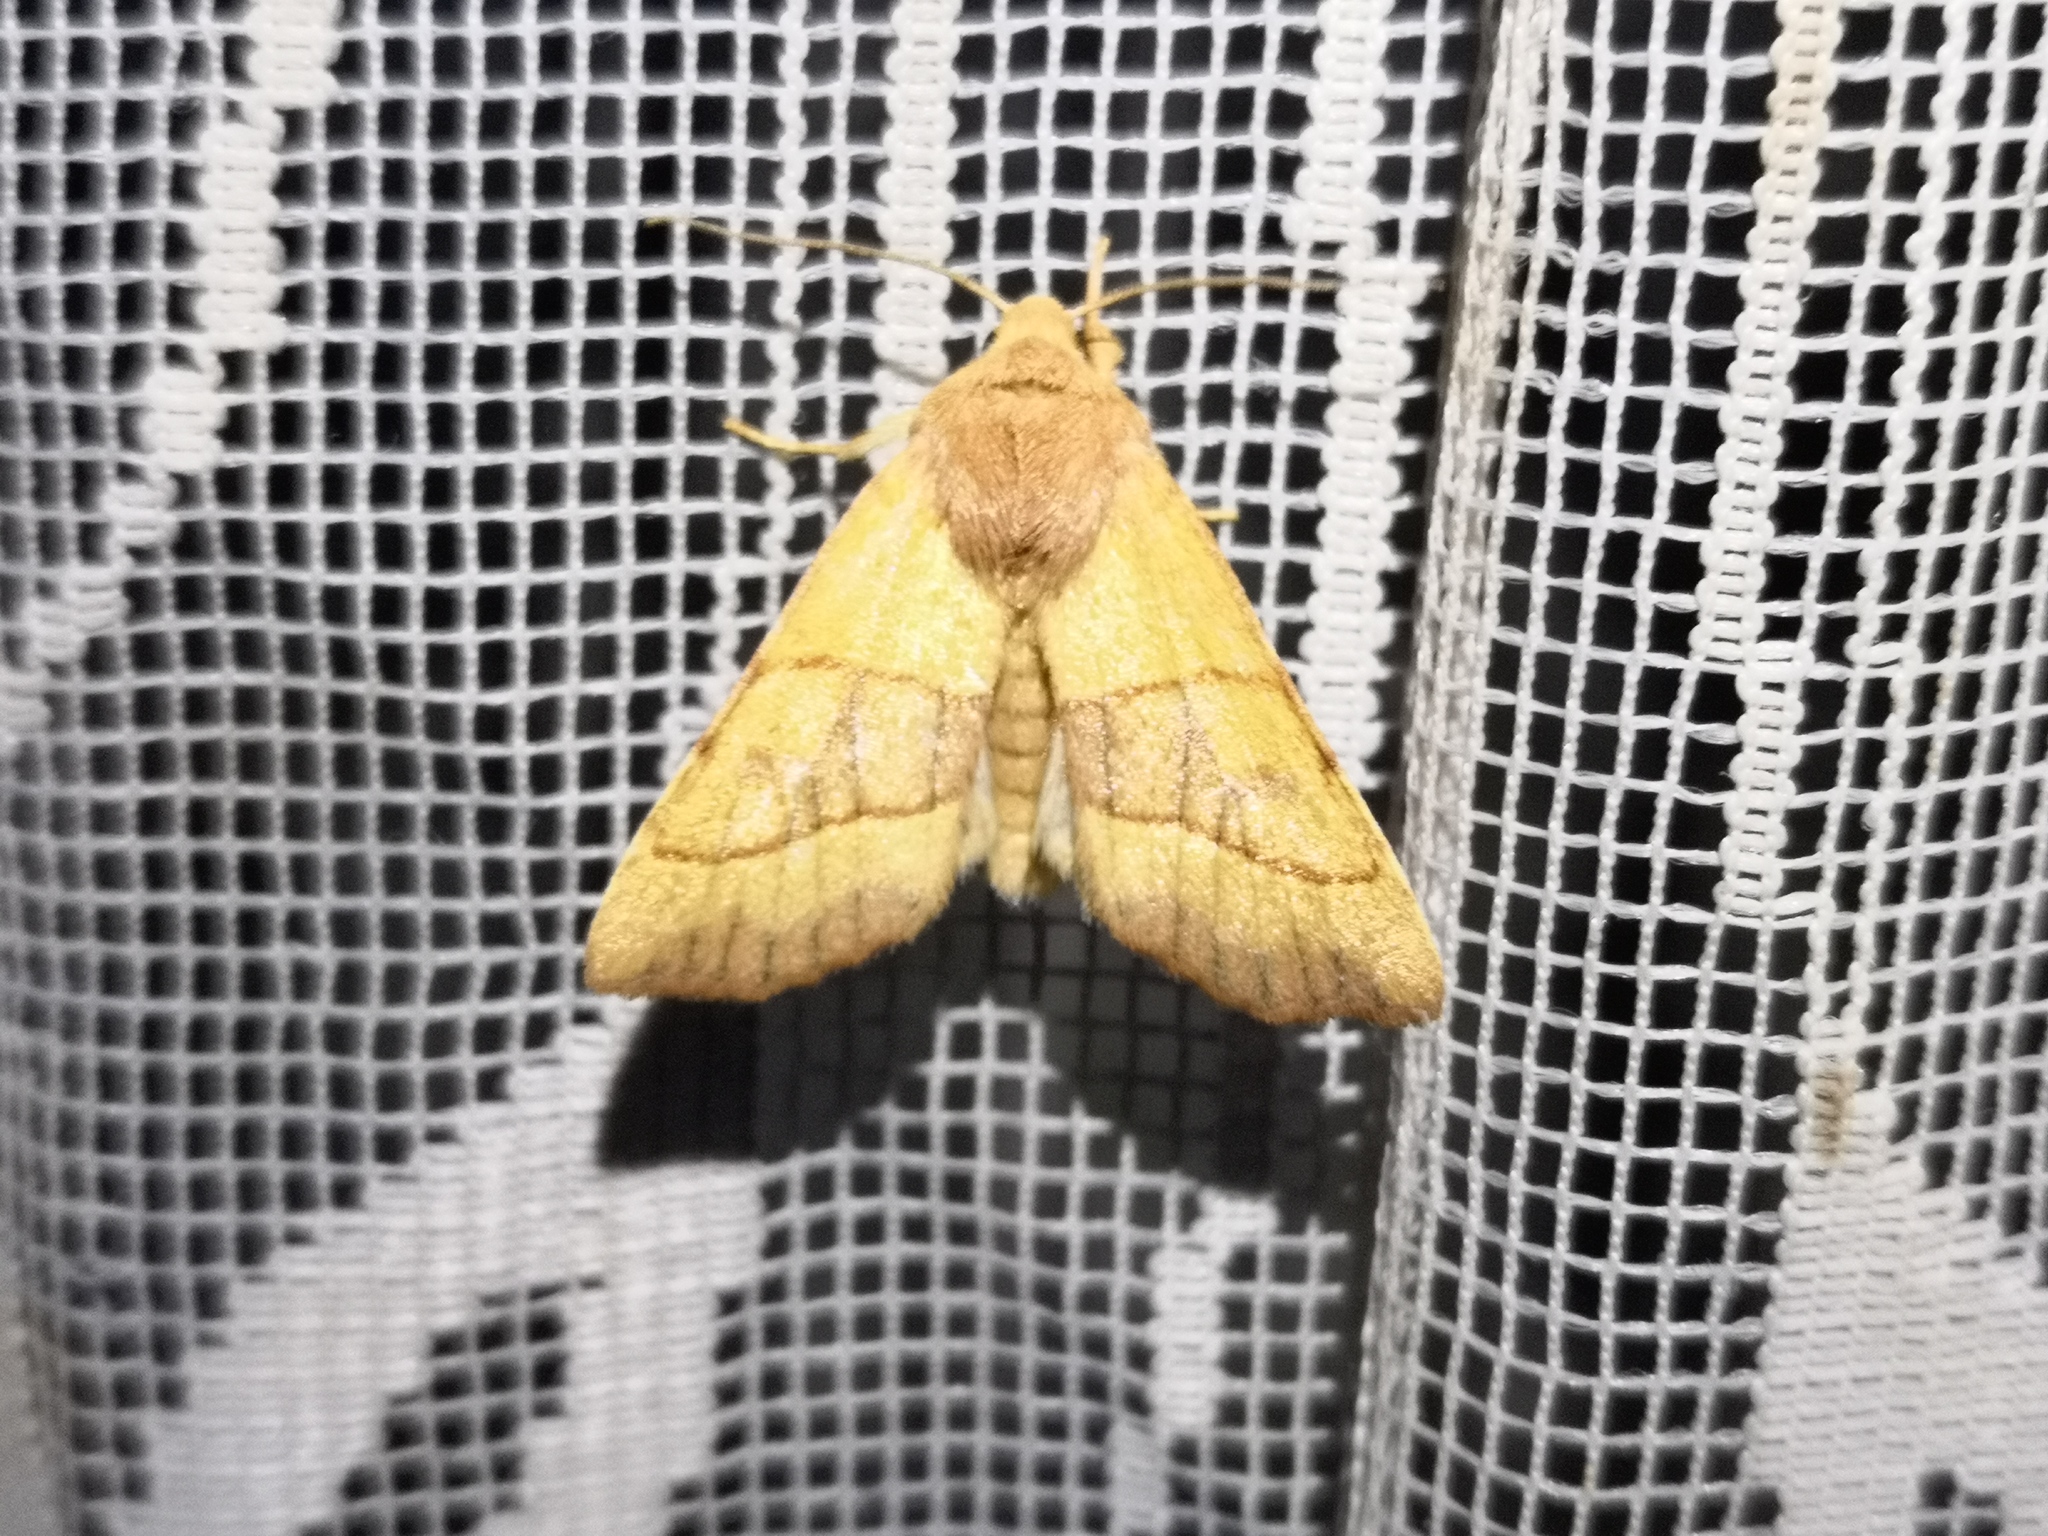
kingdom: Animalia
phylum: Arthropoda
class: Insecta
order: Lepidoptera
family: Noctuidae
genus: Atethmia
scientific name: Atethmia centrago
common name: Centre-barred sallow
